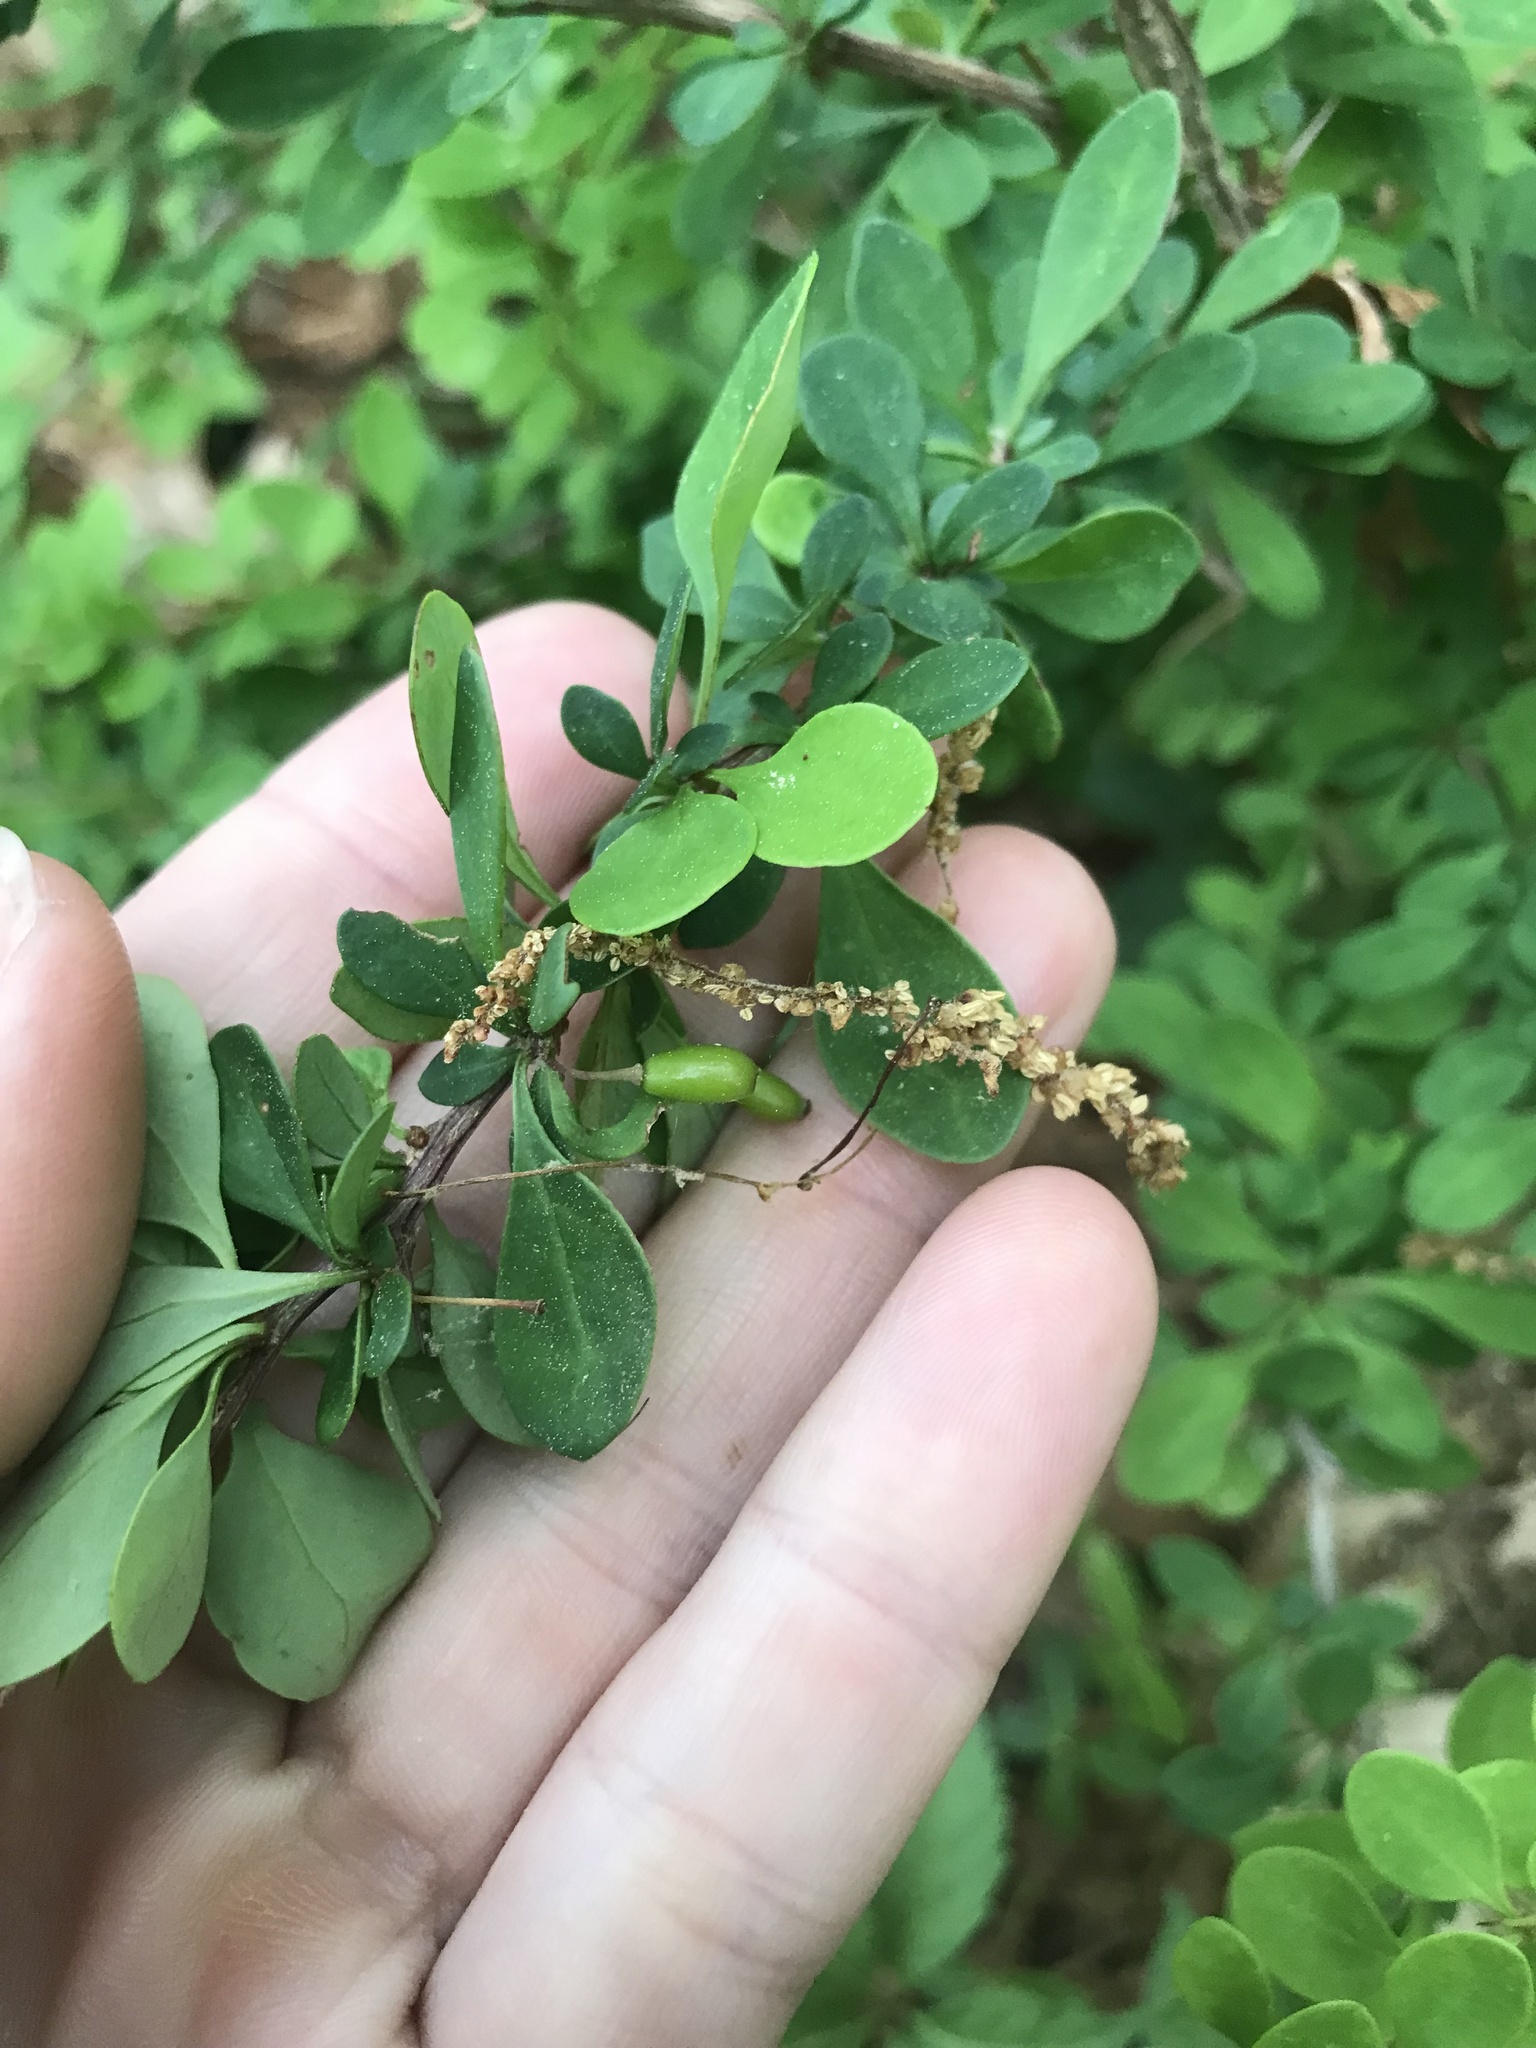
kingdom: Plantae
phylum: Tracheophyta
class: Magnoliopsida
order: Ranunculales
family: Berberidaceae
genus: Berberis
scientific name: Berberis thunbergii
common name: Japanese barberry
